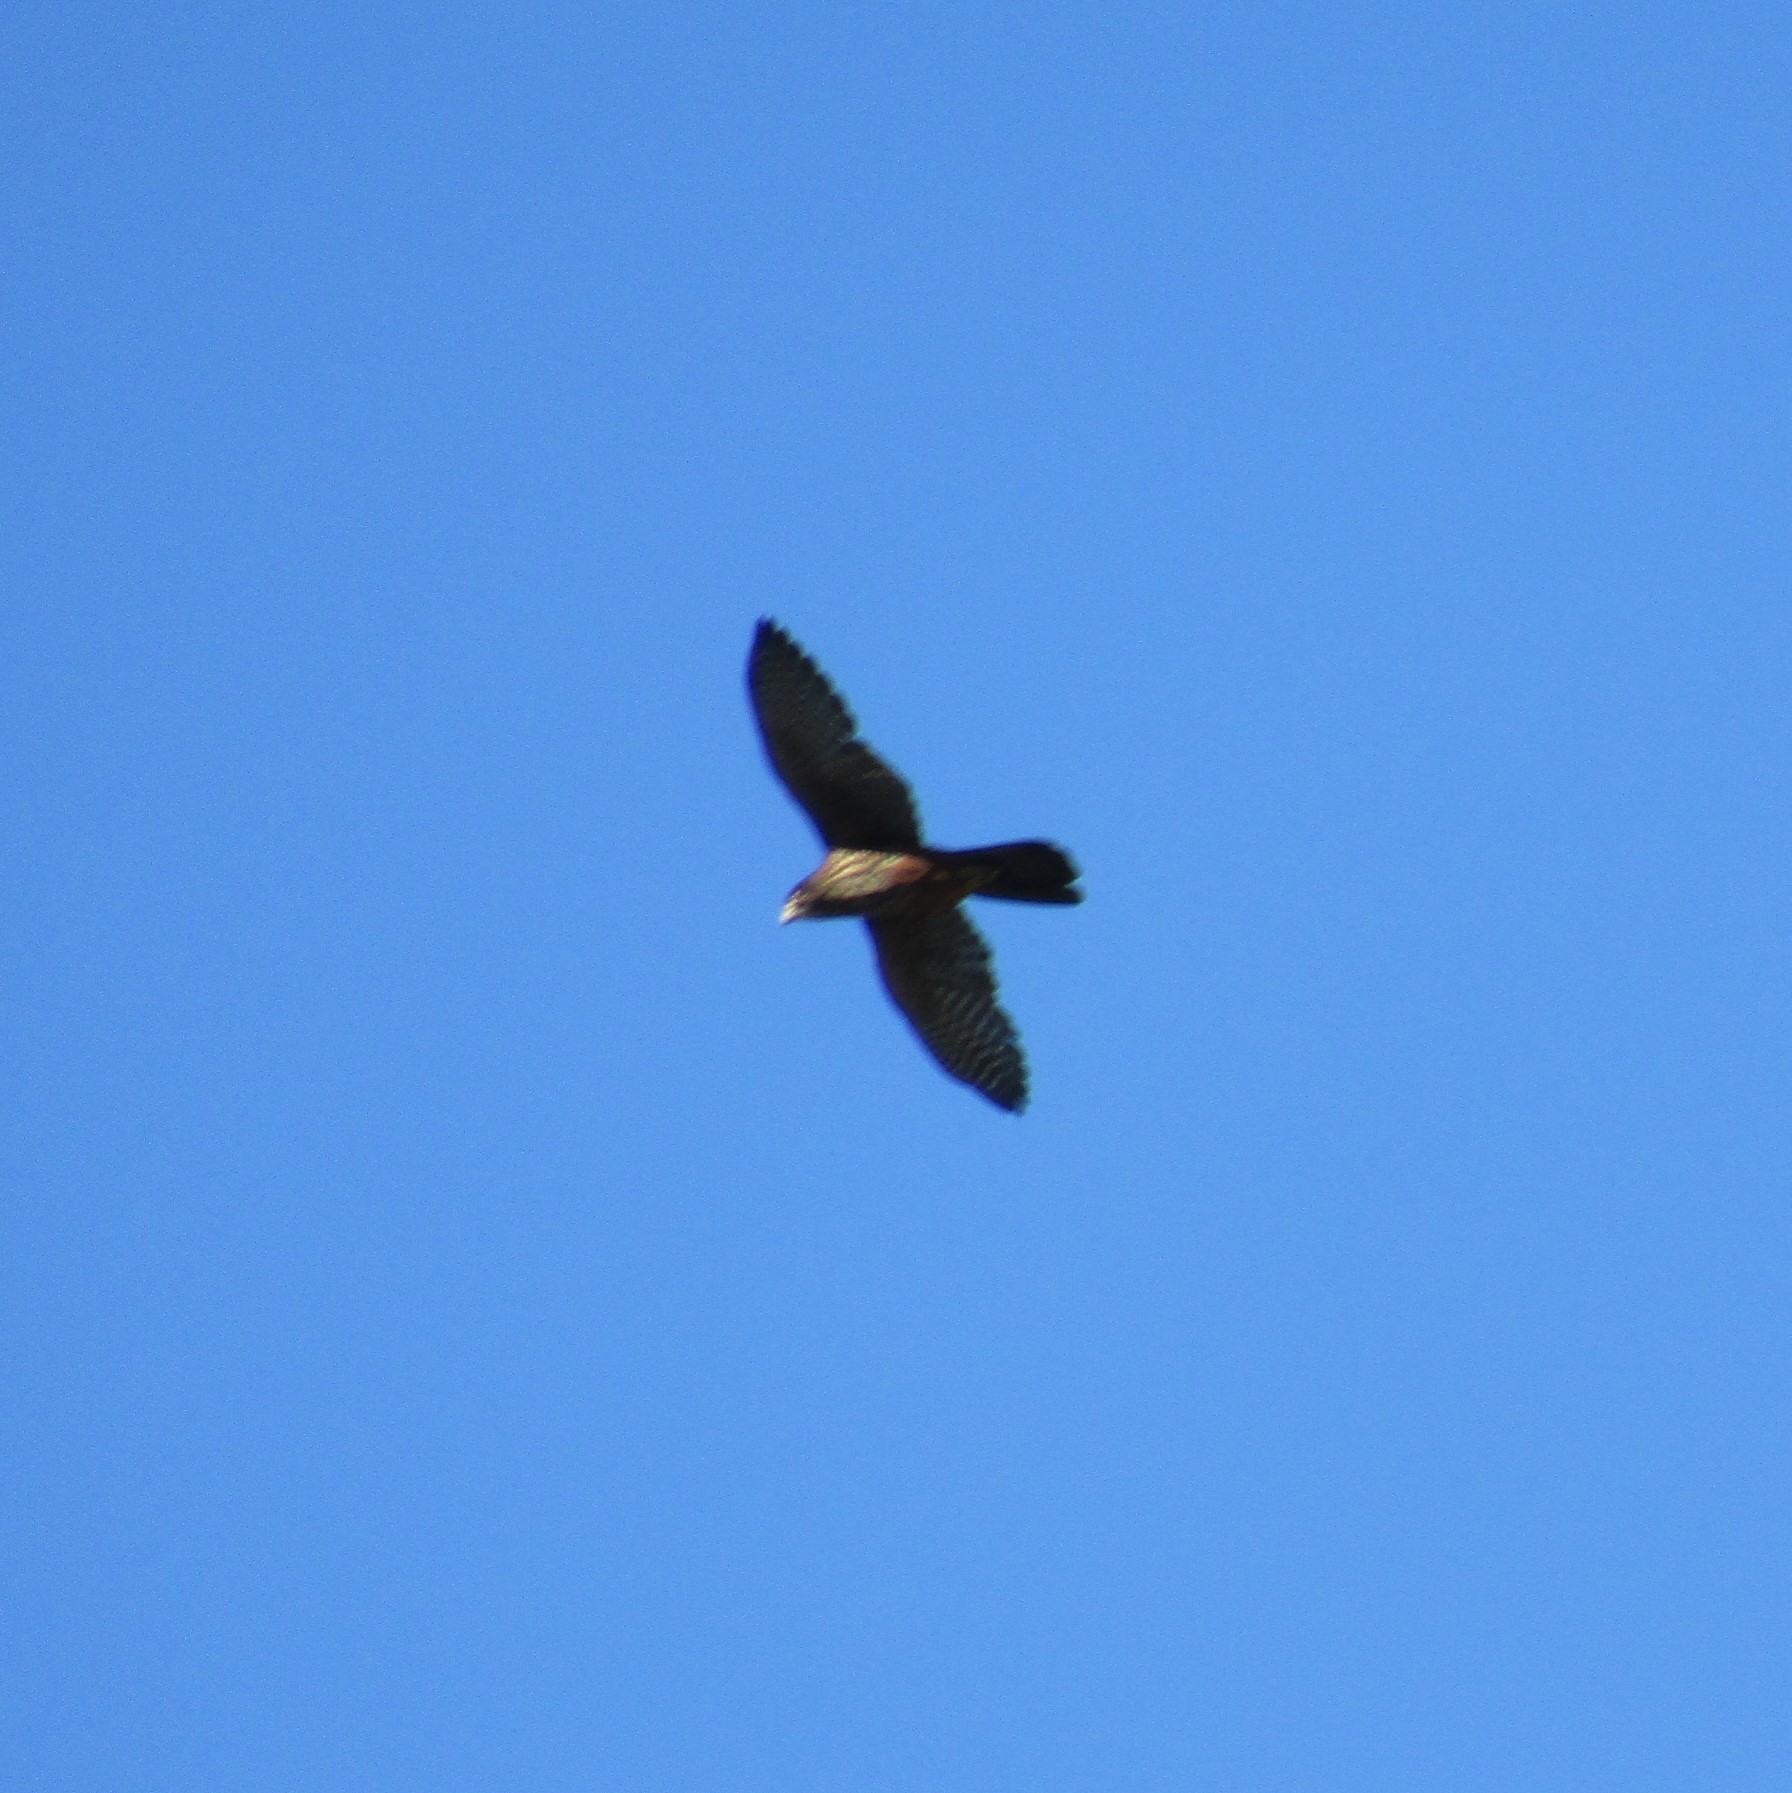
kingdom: Animalia
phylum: Chordata
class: Aves
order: Falconiformes
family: Falconidae
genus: Falco
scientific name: Falco novaeseelandiae
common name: New zealand falcon
